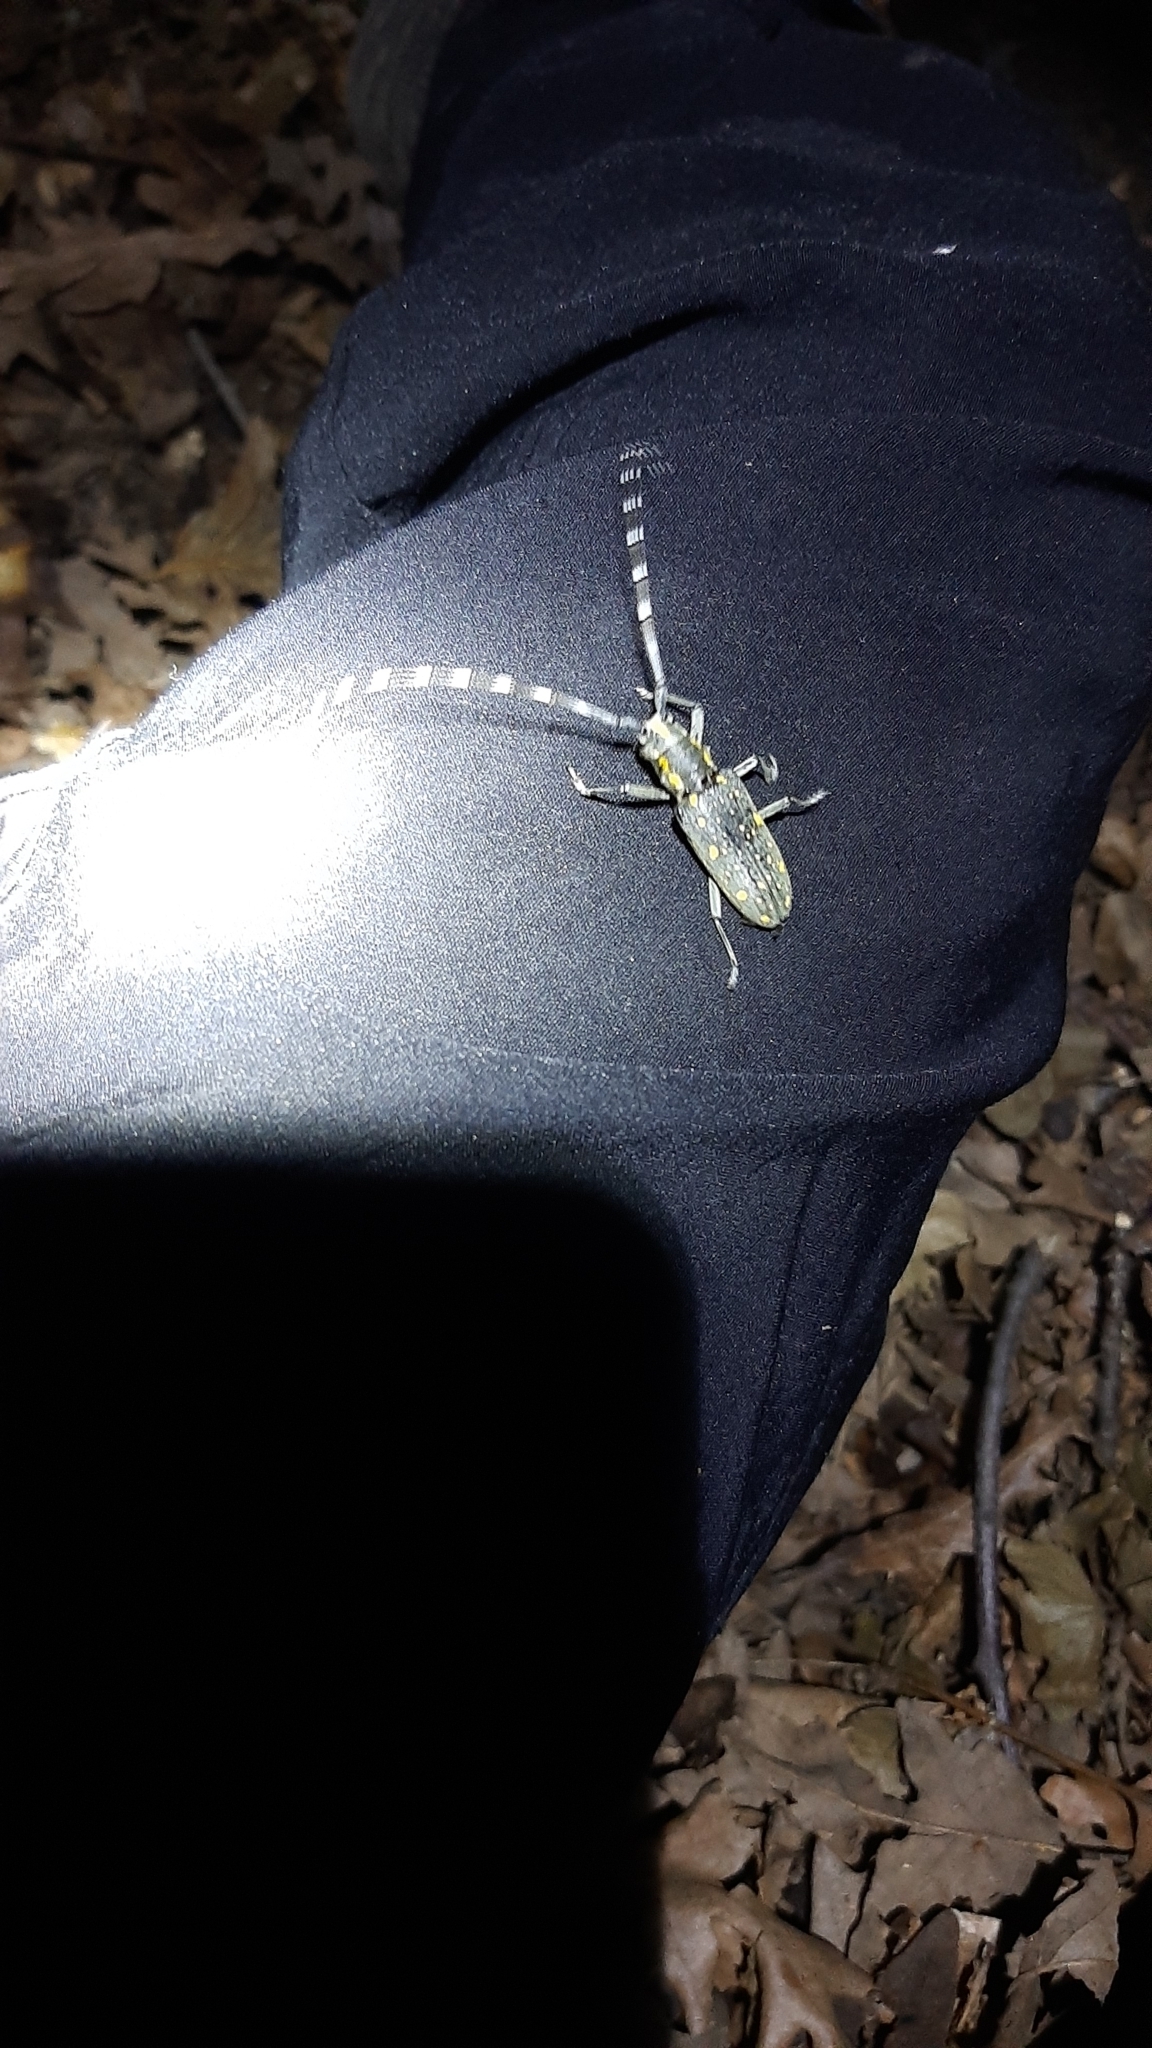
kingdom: Animalia
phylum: Arthropoda
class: Insecta
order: Coleoptera
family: Cerambycidae
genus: Psacothea
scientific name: Psacothea hilaris
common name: Yellow-spotted longicorn beetle
